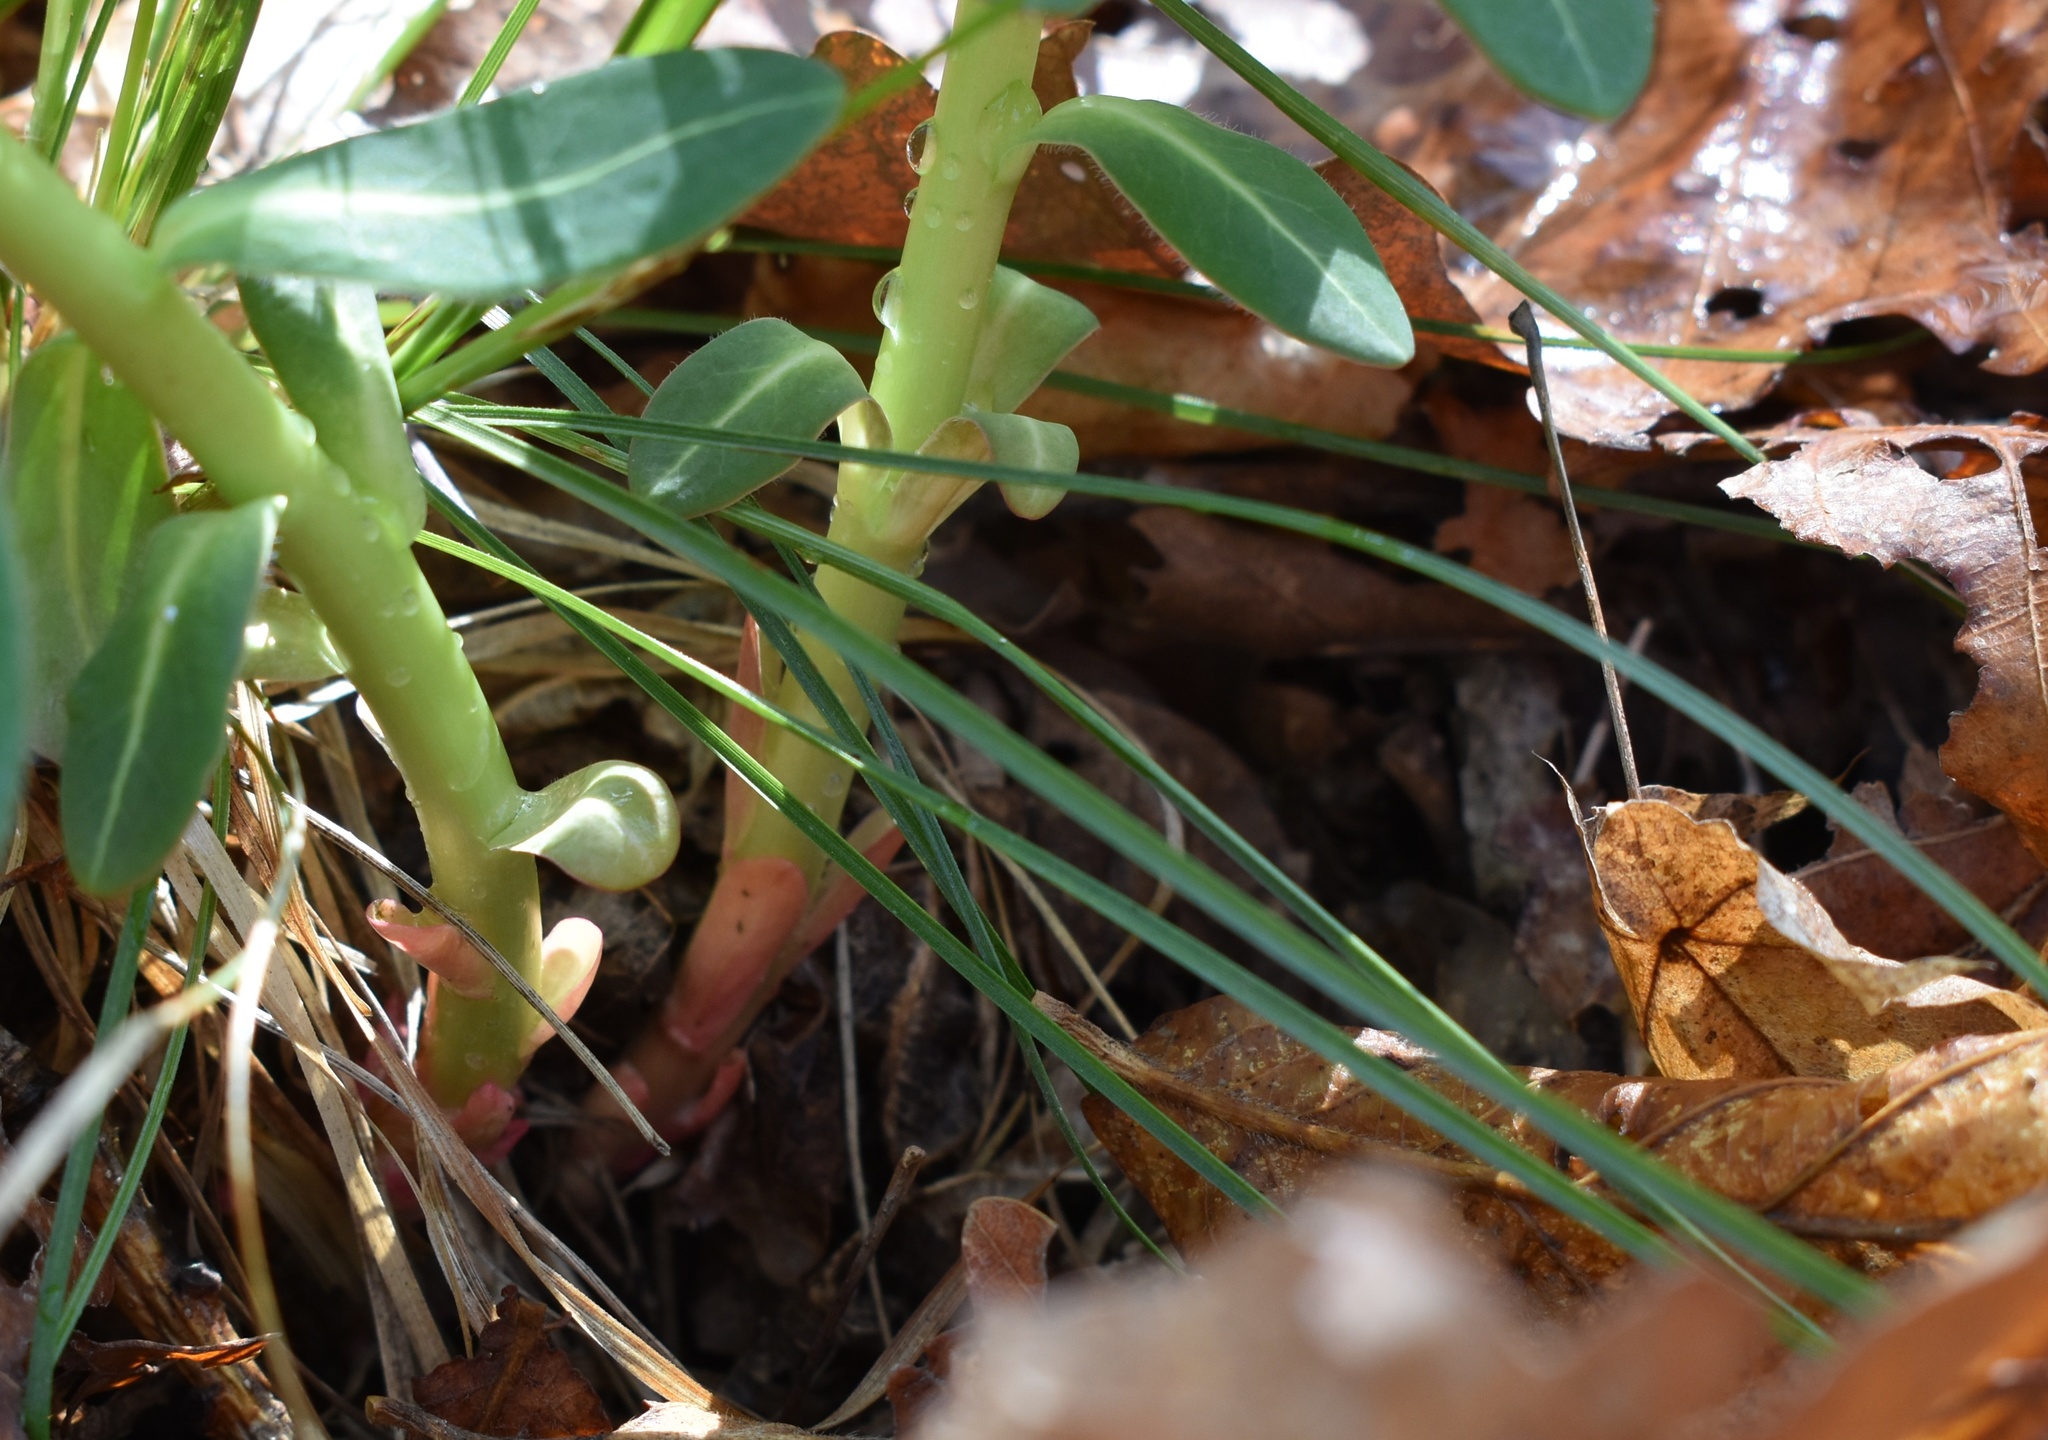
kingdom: Plantae
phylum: Tracheophyta
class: Magnoliopsida
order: Malpighiales
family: Euphorbiaceae
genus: Euphorbia
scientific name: Euphorbia hylonoma
